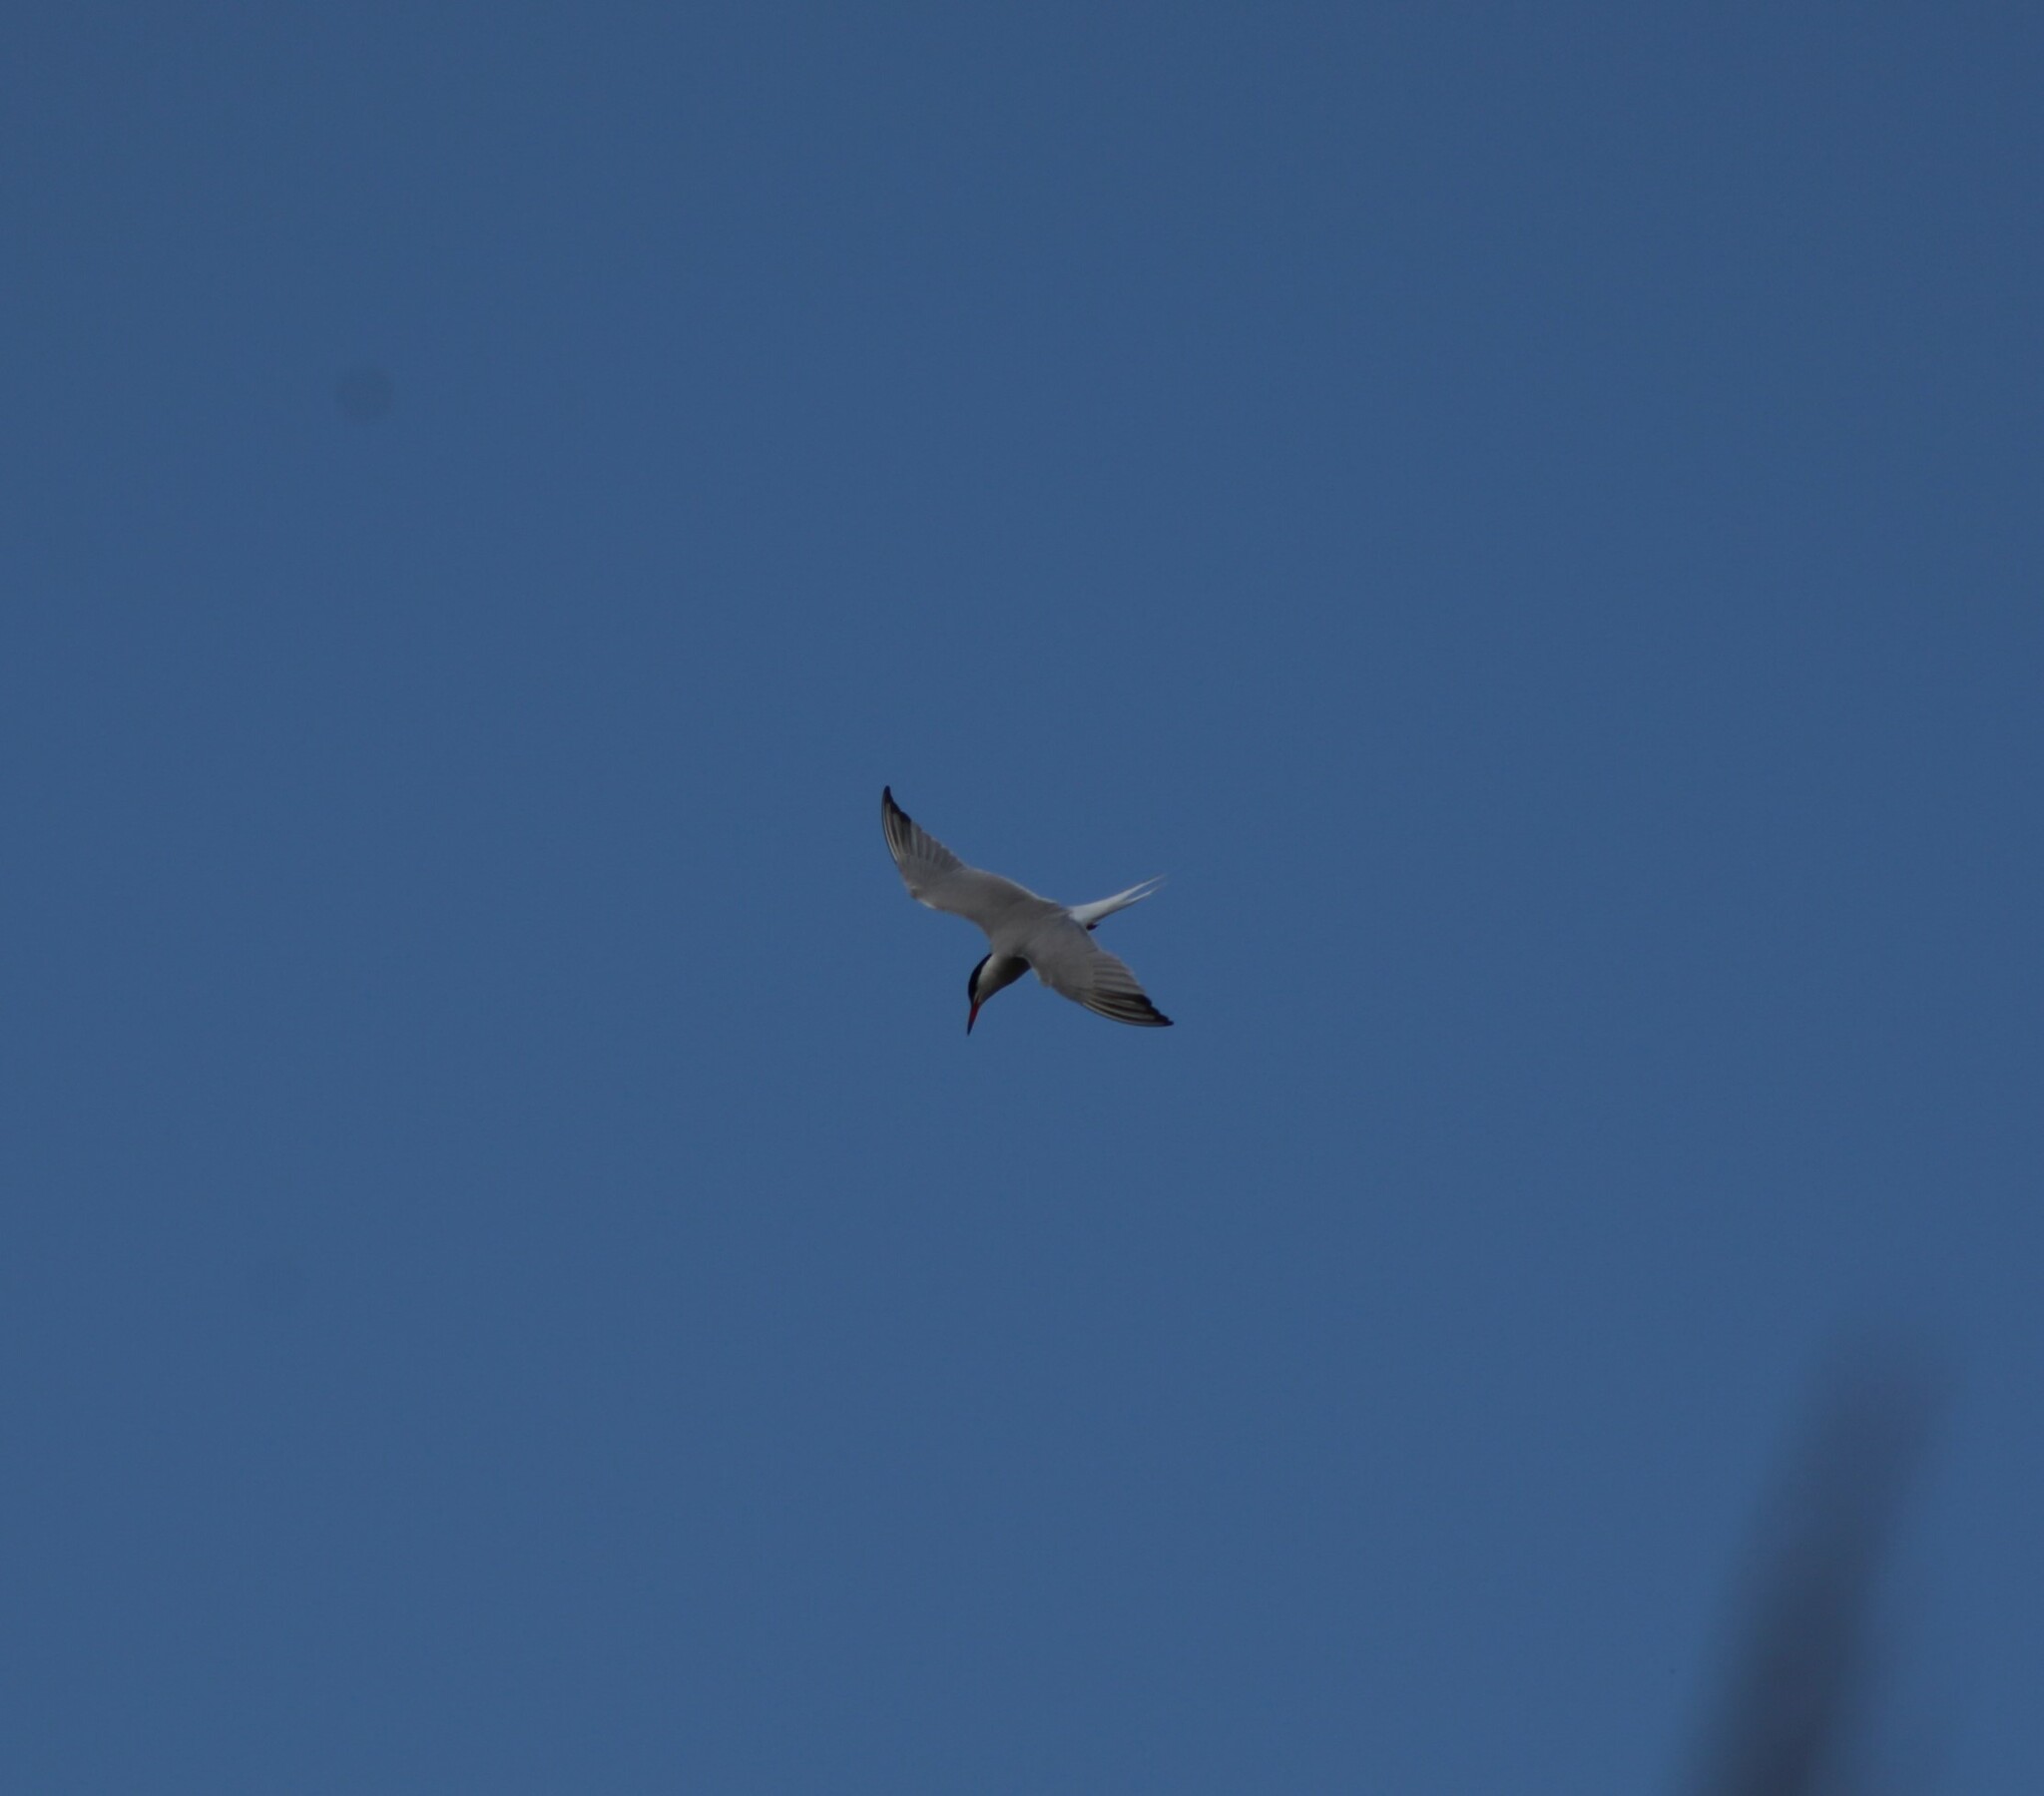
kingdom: Animalia
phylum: Chordata
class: Aves
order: Charadriiformes
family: Laridae
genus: Sterna
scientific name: Sterna hirundo
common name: Common tern
